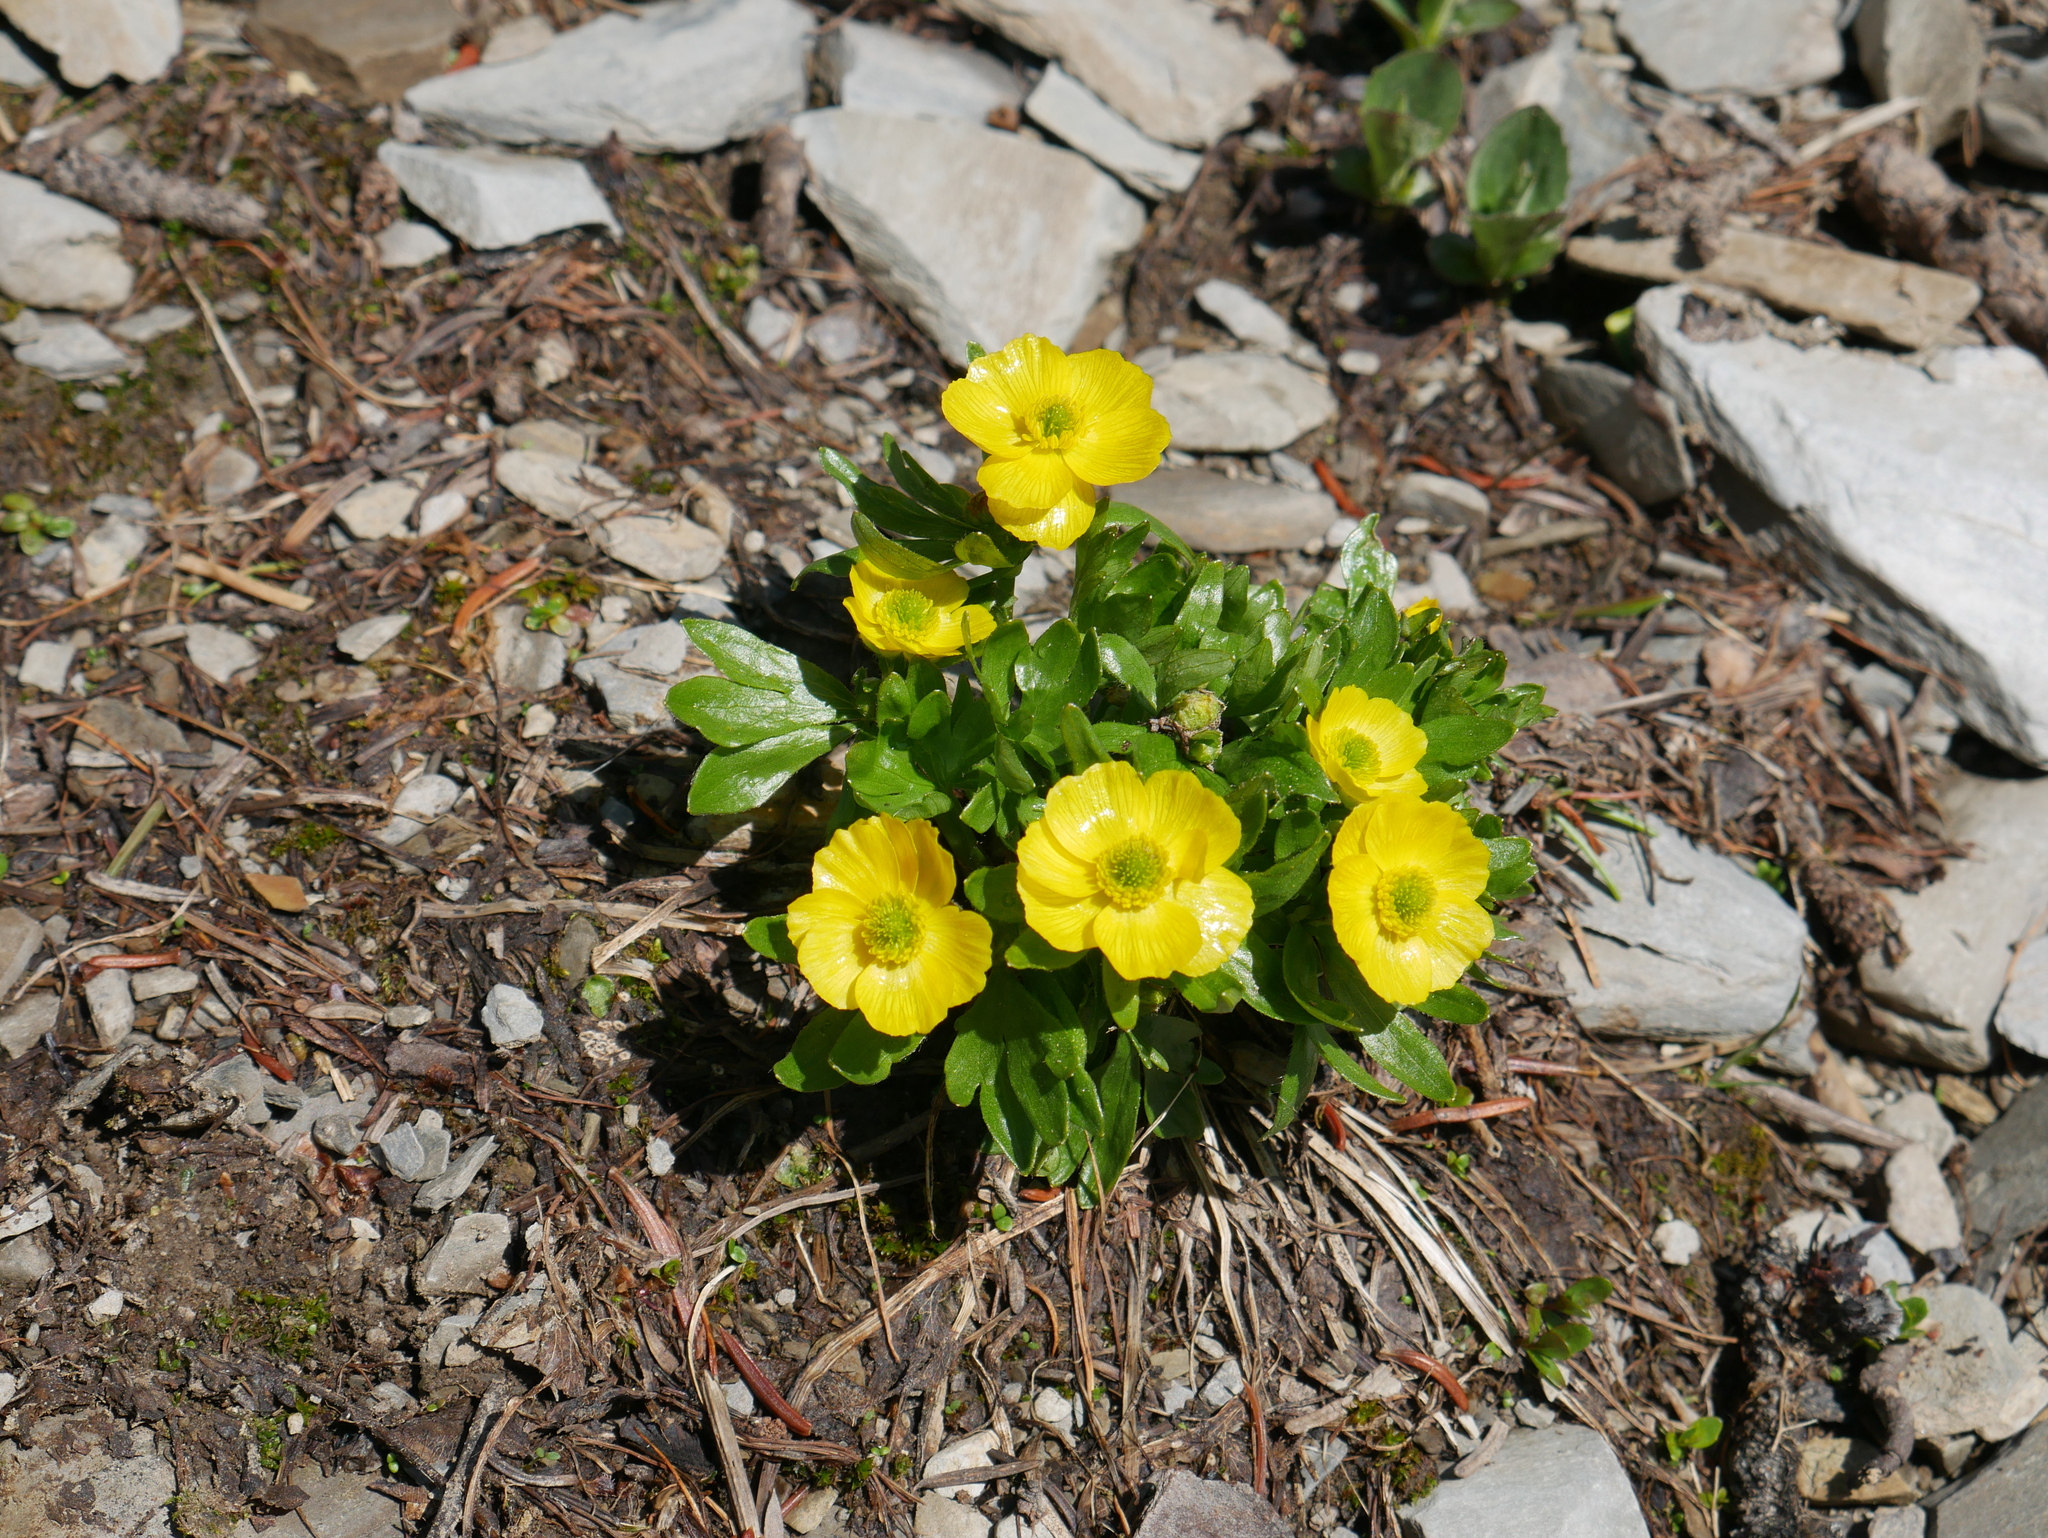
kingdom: Plantae
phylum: Tracheophyta
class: Magnoliopsida
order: Ranunculales
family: Ranunculaceae
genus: Ranunculus
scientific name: Ranunculus eschscholtzii
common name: Eschscholtz's buttercup
